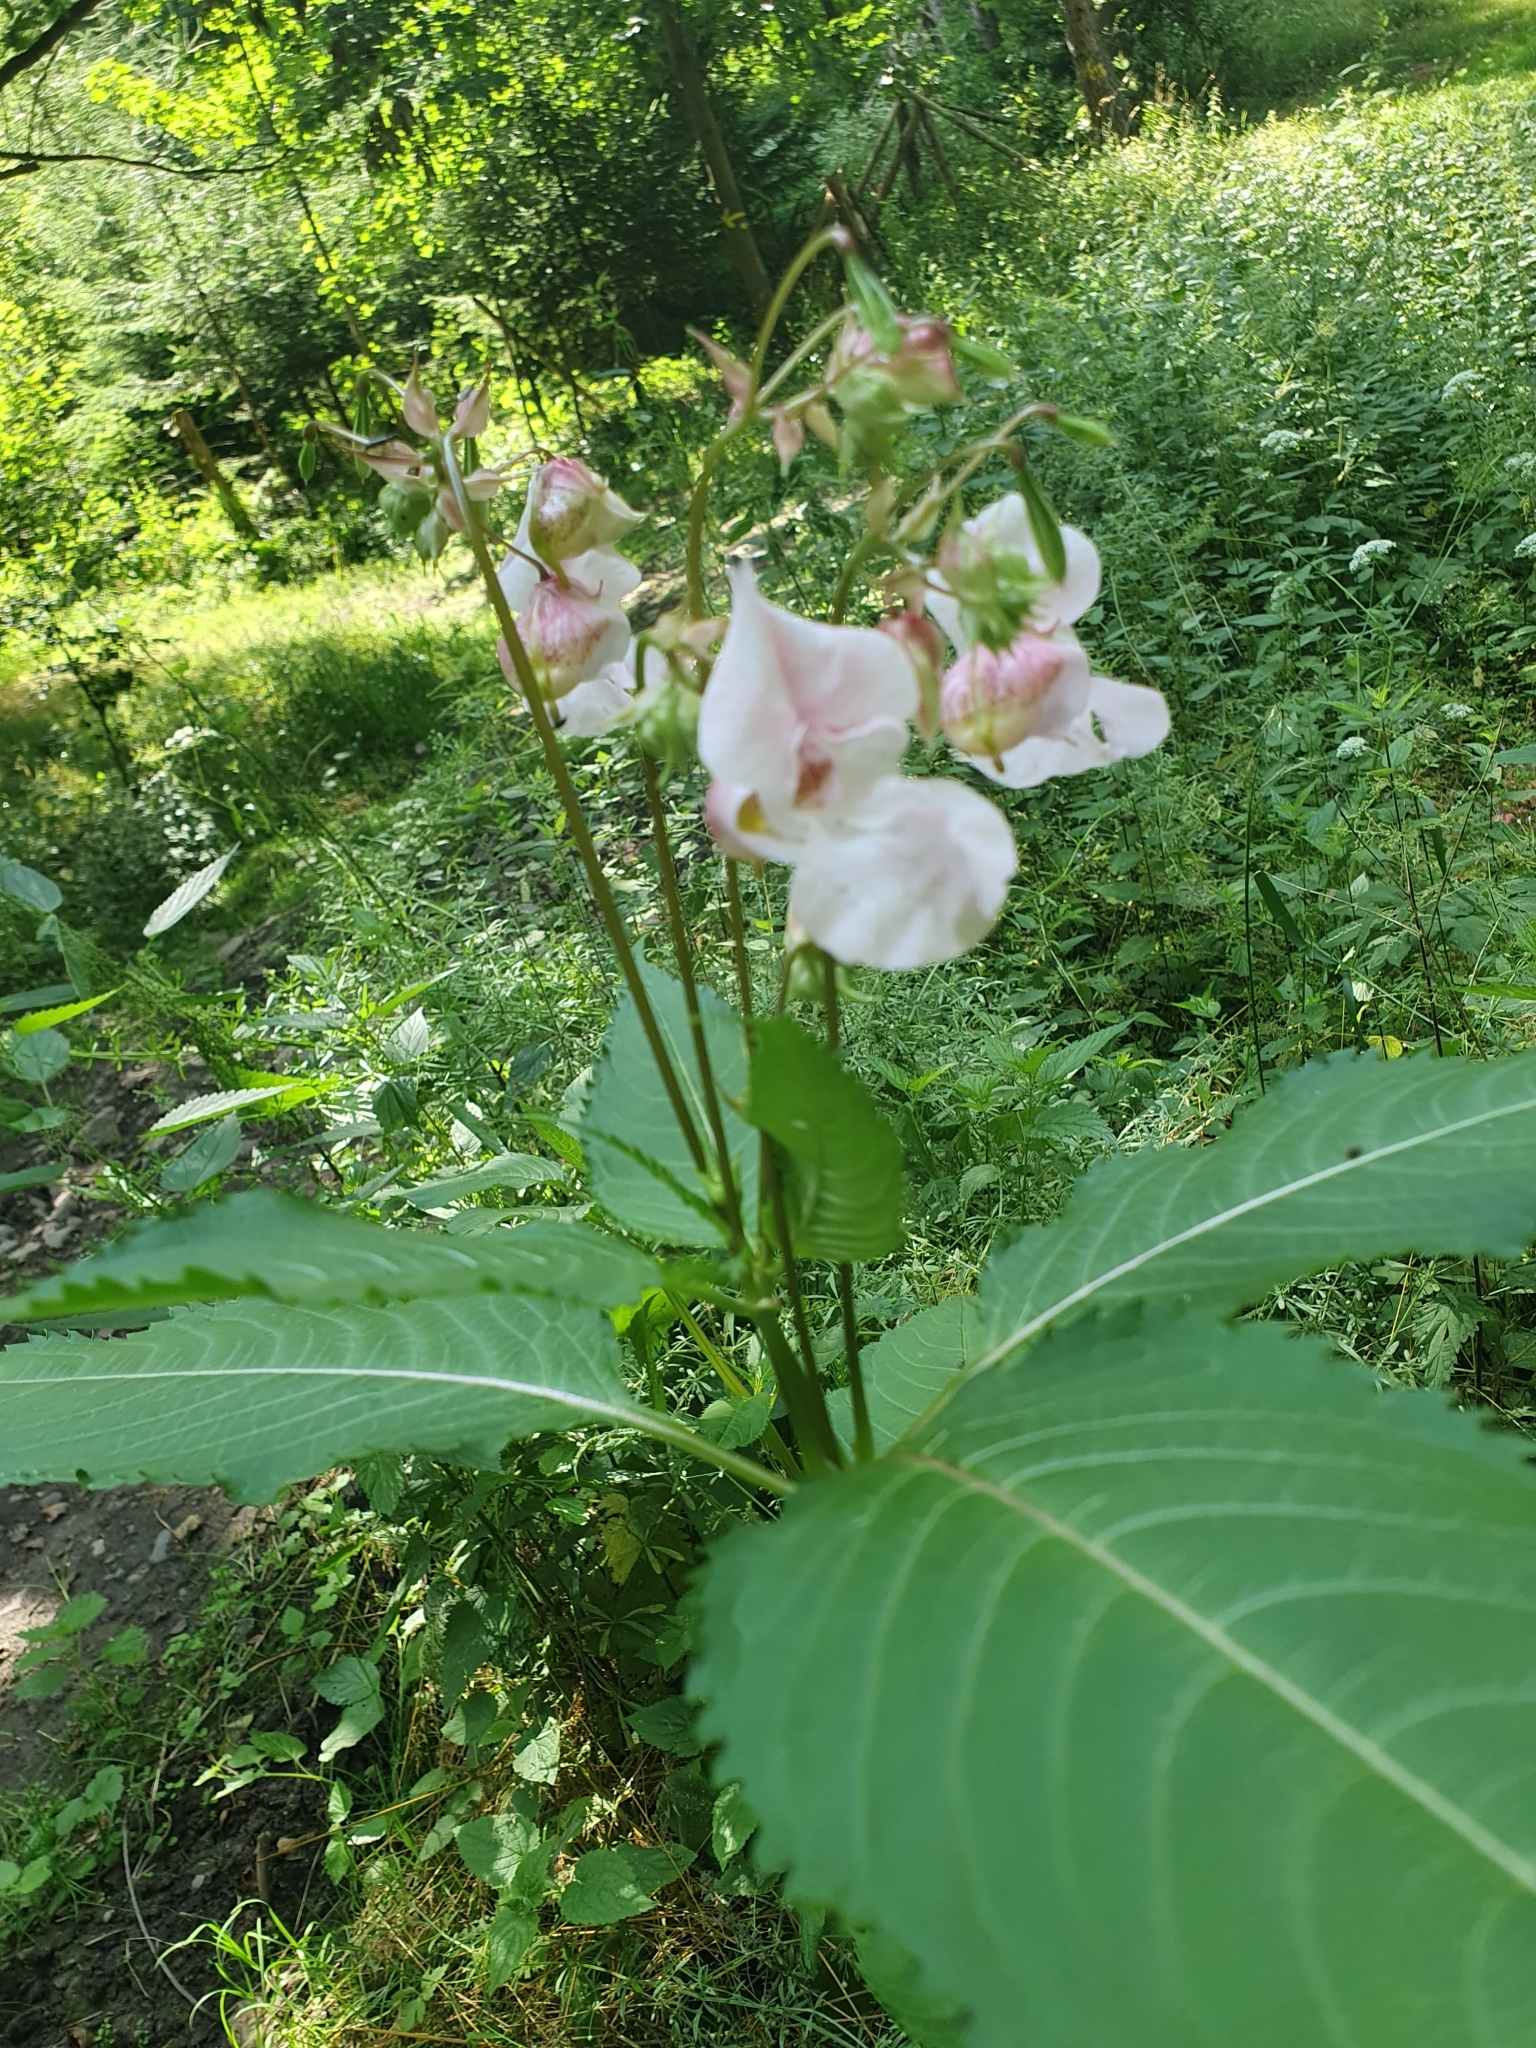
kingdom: Plantae
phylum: Tracheophyta
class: Magnoliopsida
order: Ericales
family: Balsaminaceae
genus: Impatiens
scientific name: Impatiens glandulifera
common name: Himalayan balsam
